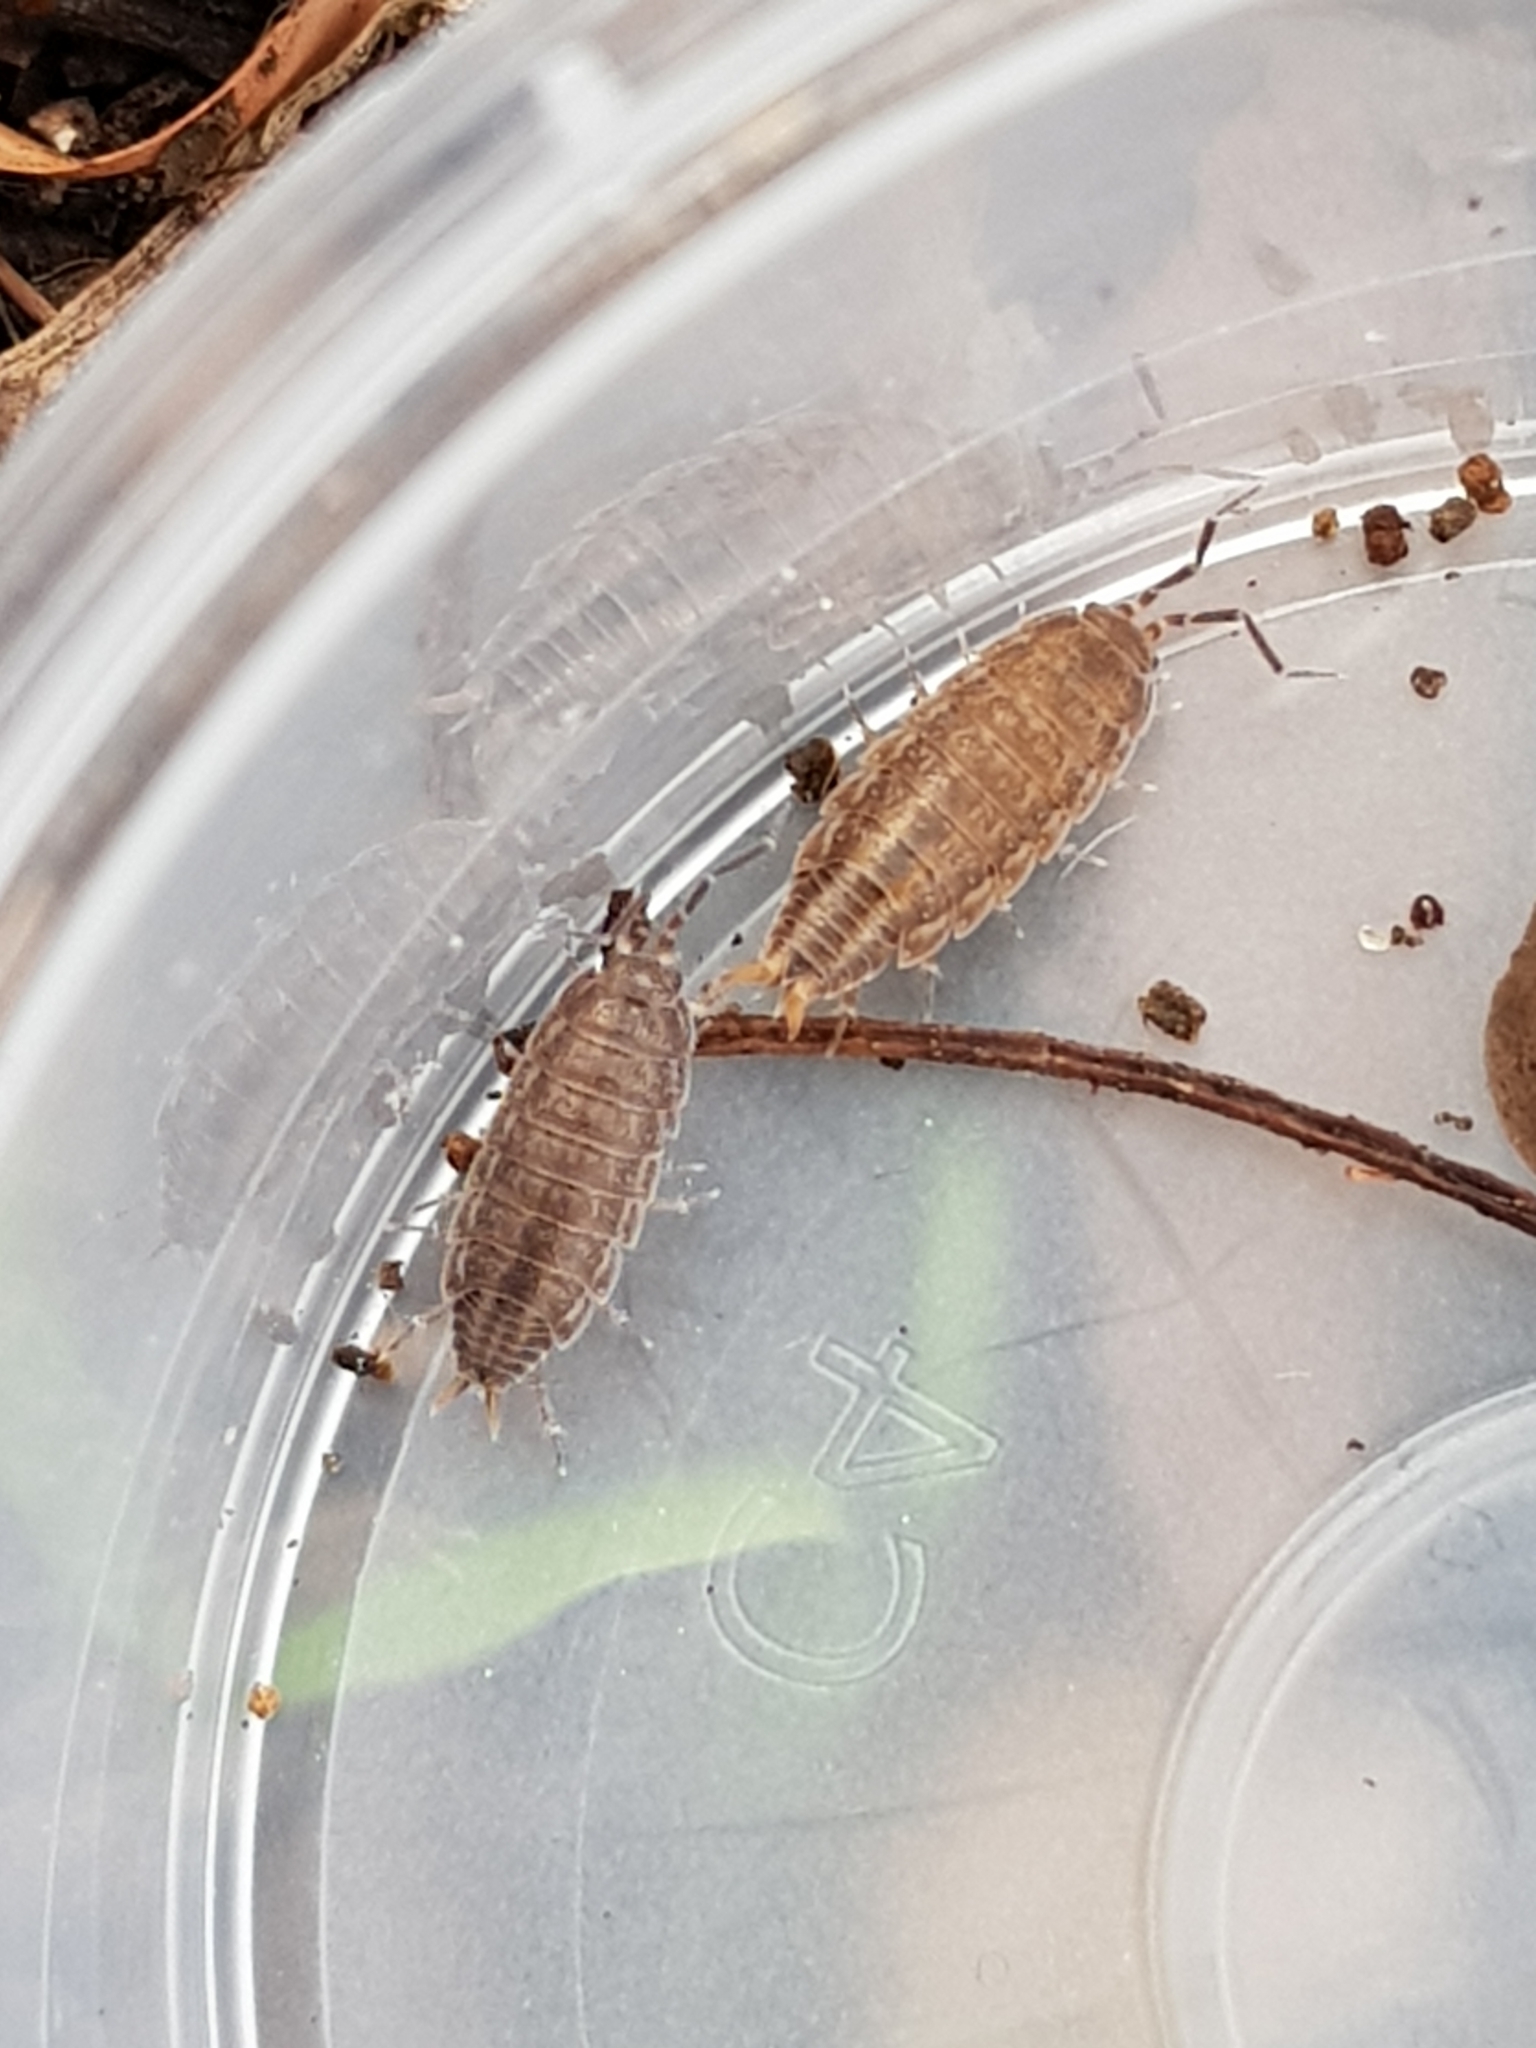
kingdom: Animalia
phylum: Arthropoda
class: Malacostraca
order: Isopoda
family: Porcellionidae
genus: Porcellionides
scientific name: Porcellionides sexfasciatus
